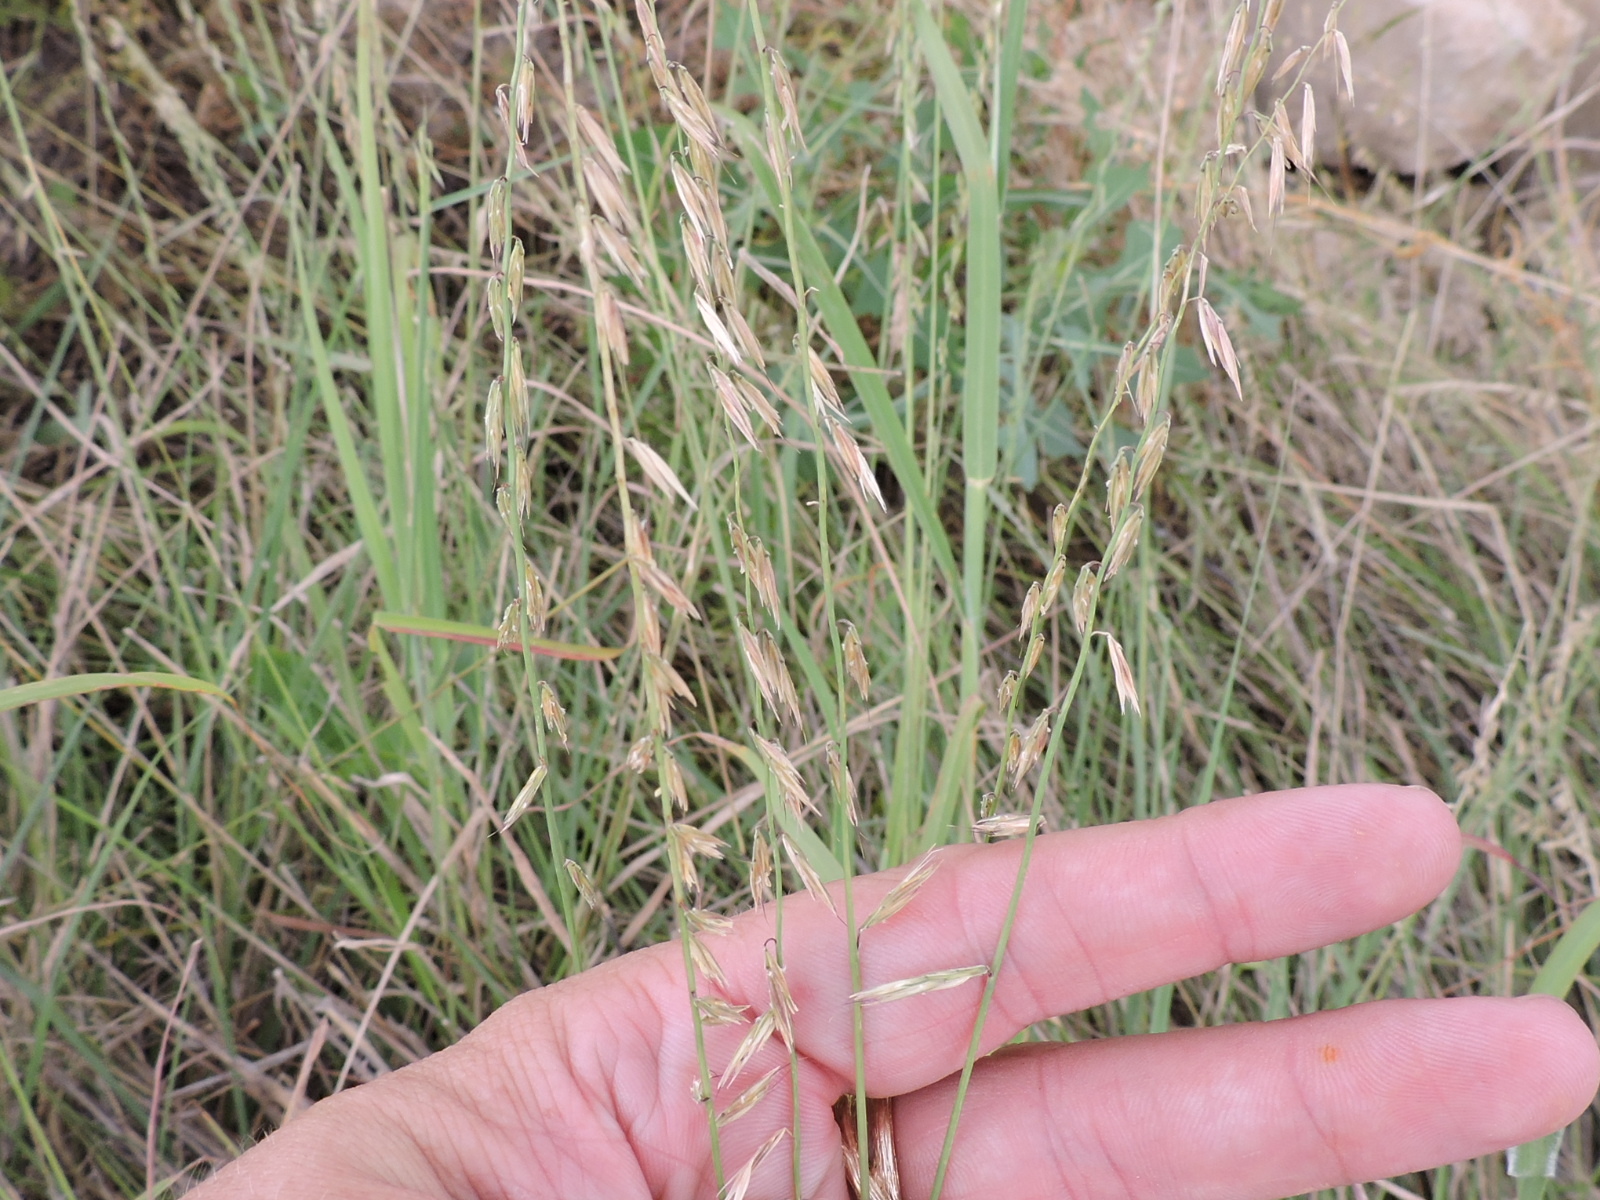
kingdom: Plantae
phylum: Tracheophyta
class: Liliopsida
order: Poales
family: Poaceae
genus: Bouteloua
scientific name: Bouteloua curtipendula
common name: Side-oats grama
